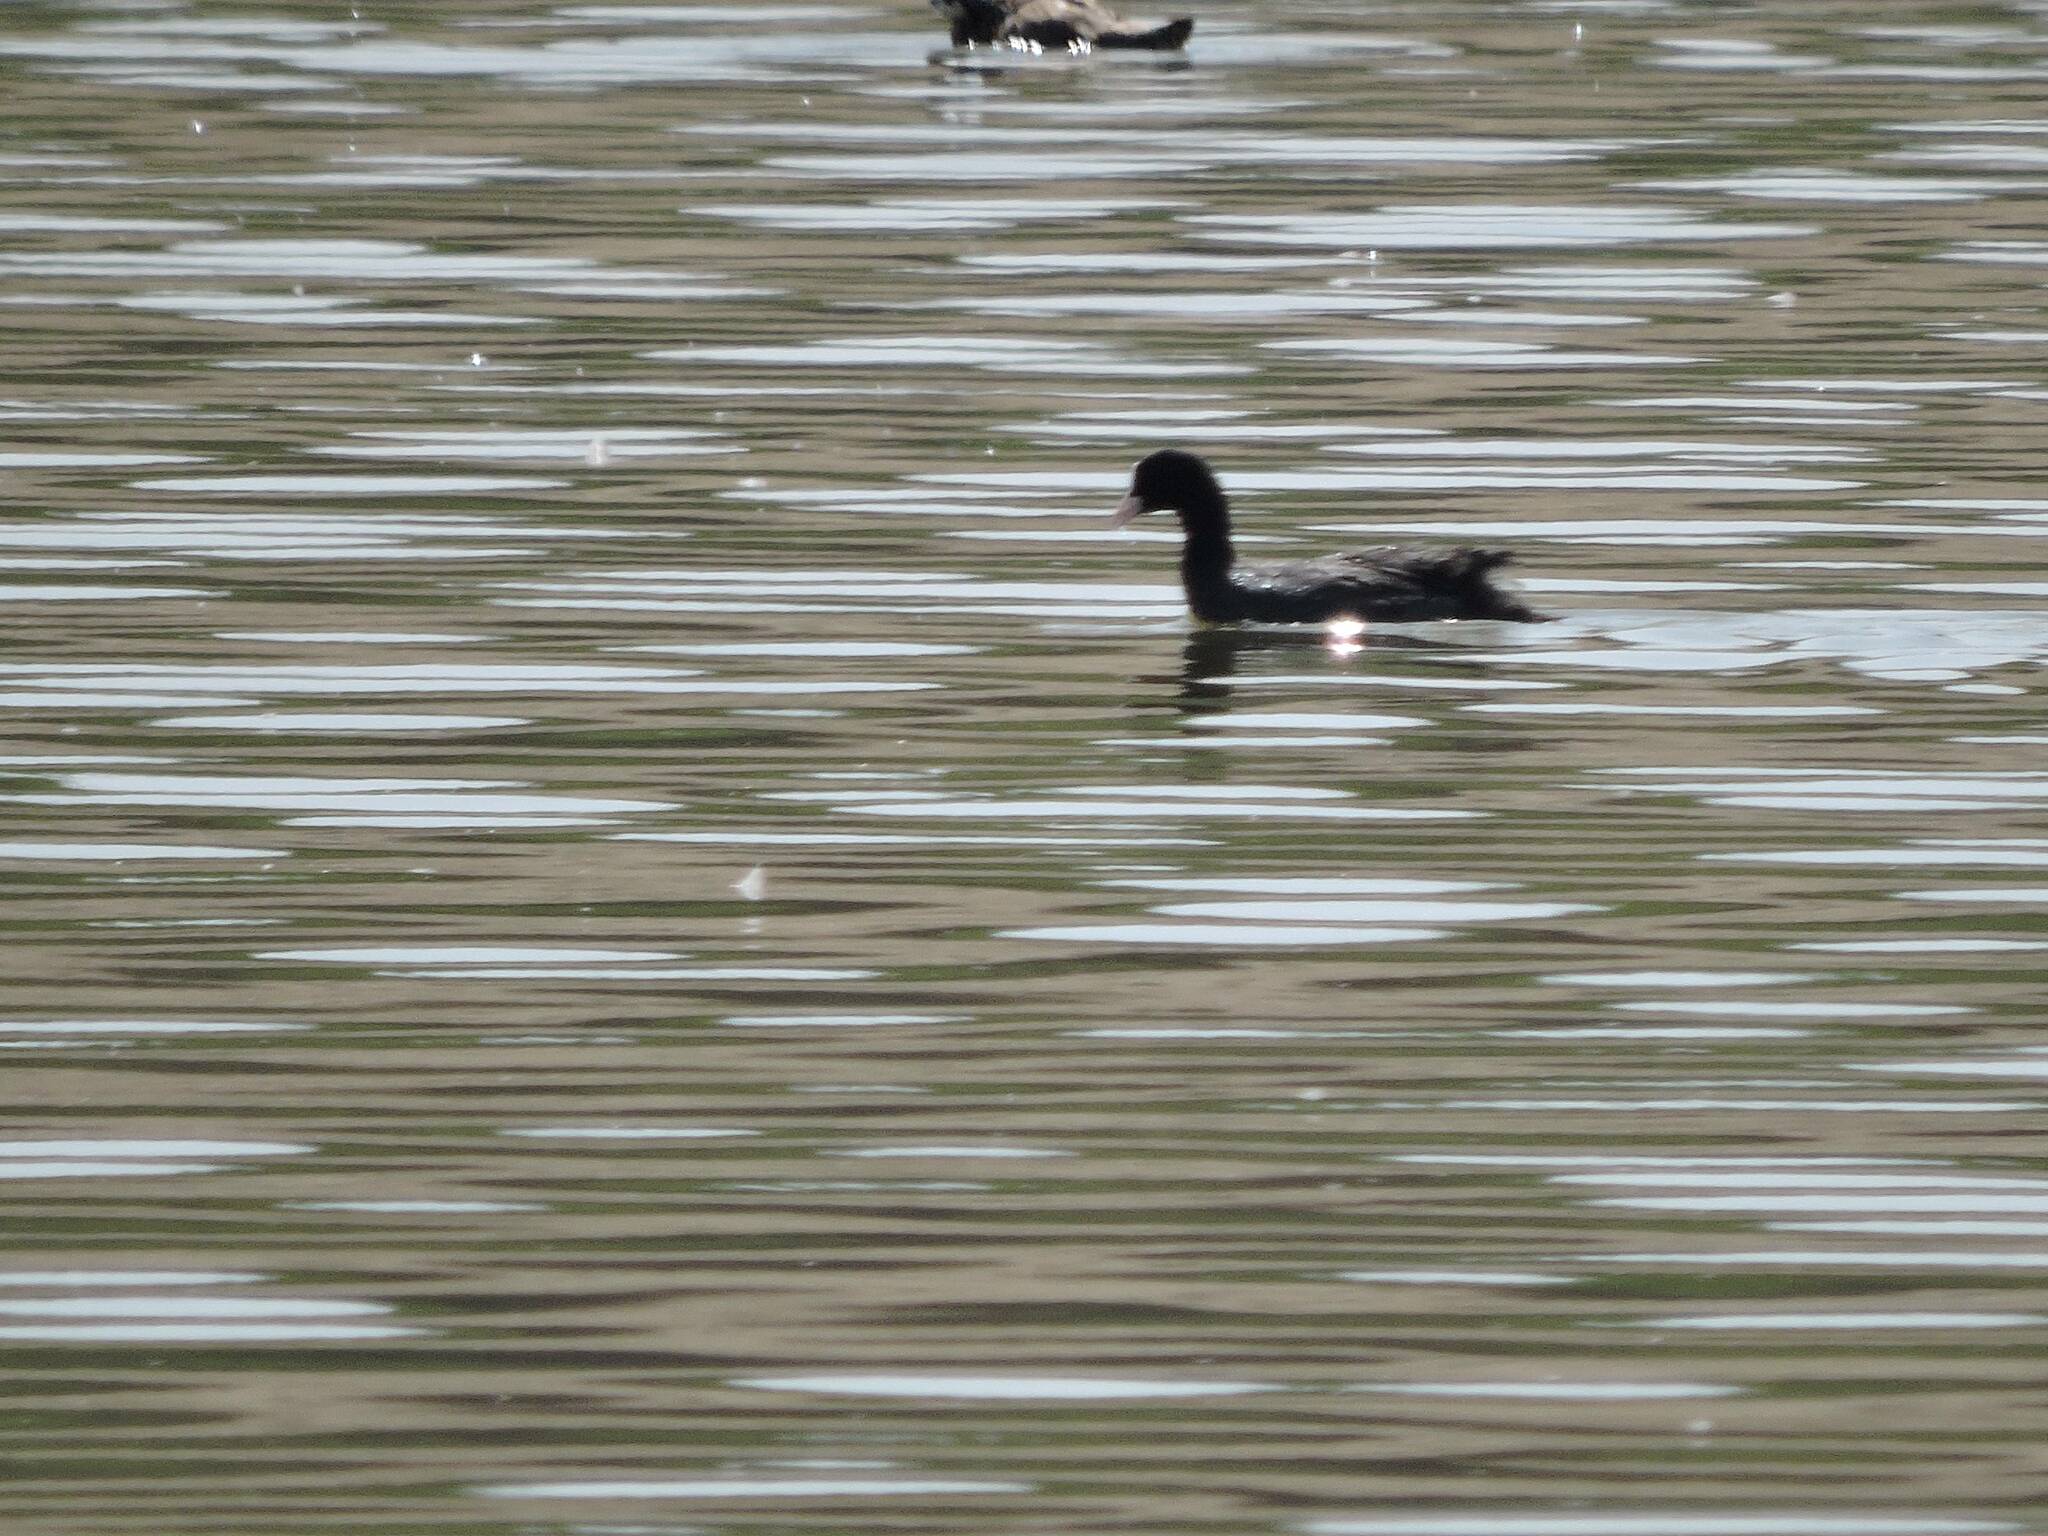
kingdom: Animalia
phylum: Chordata
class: Aves
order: Gruiformes
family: Rallidae
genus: Fulica
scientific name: Fulica atra
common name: Eurasian coot
